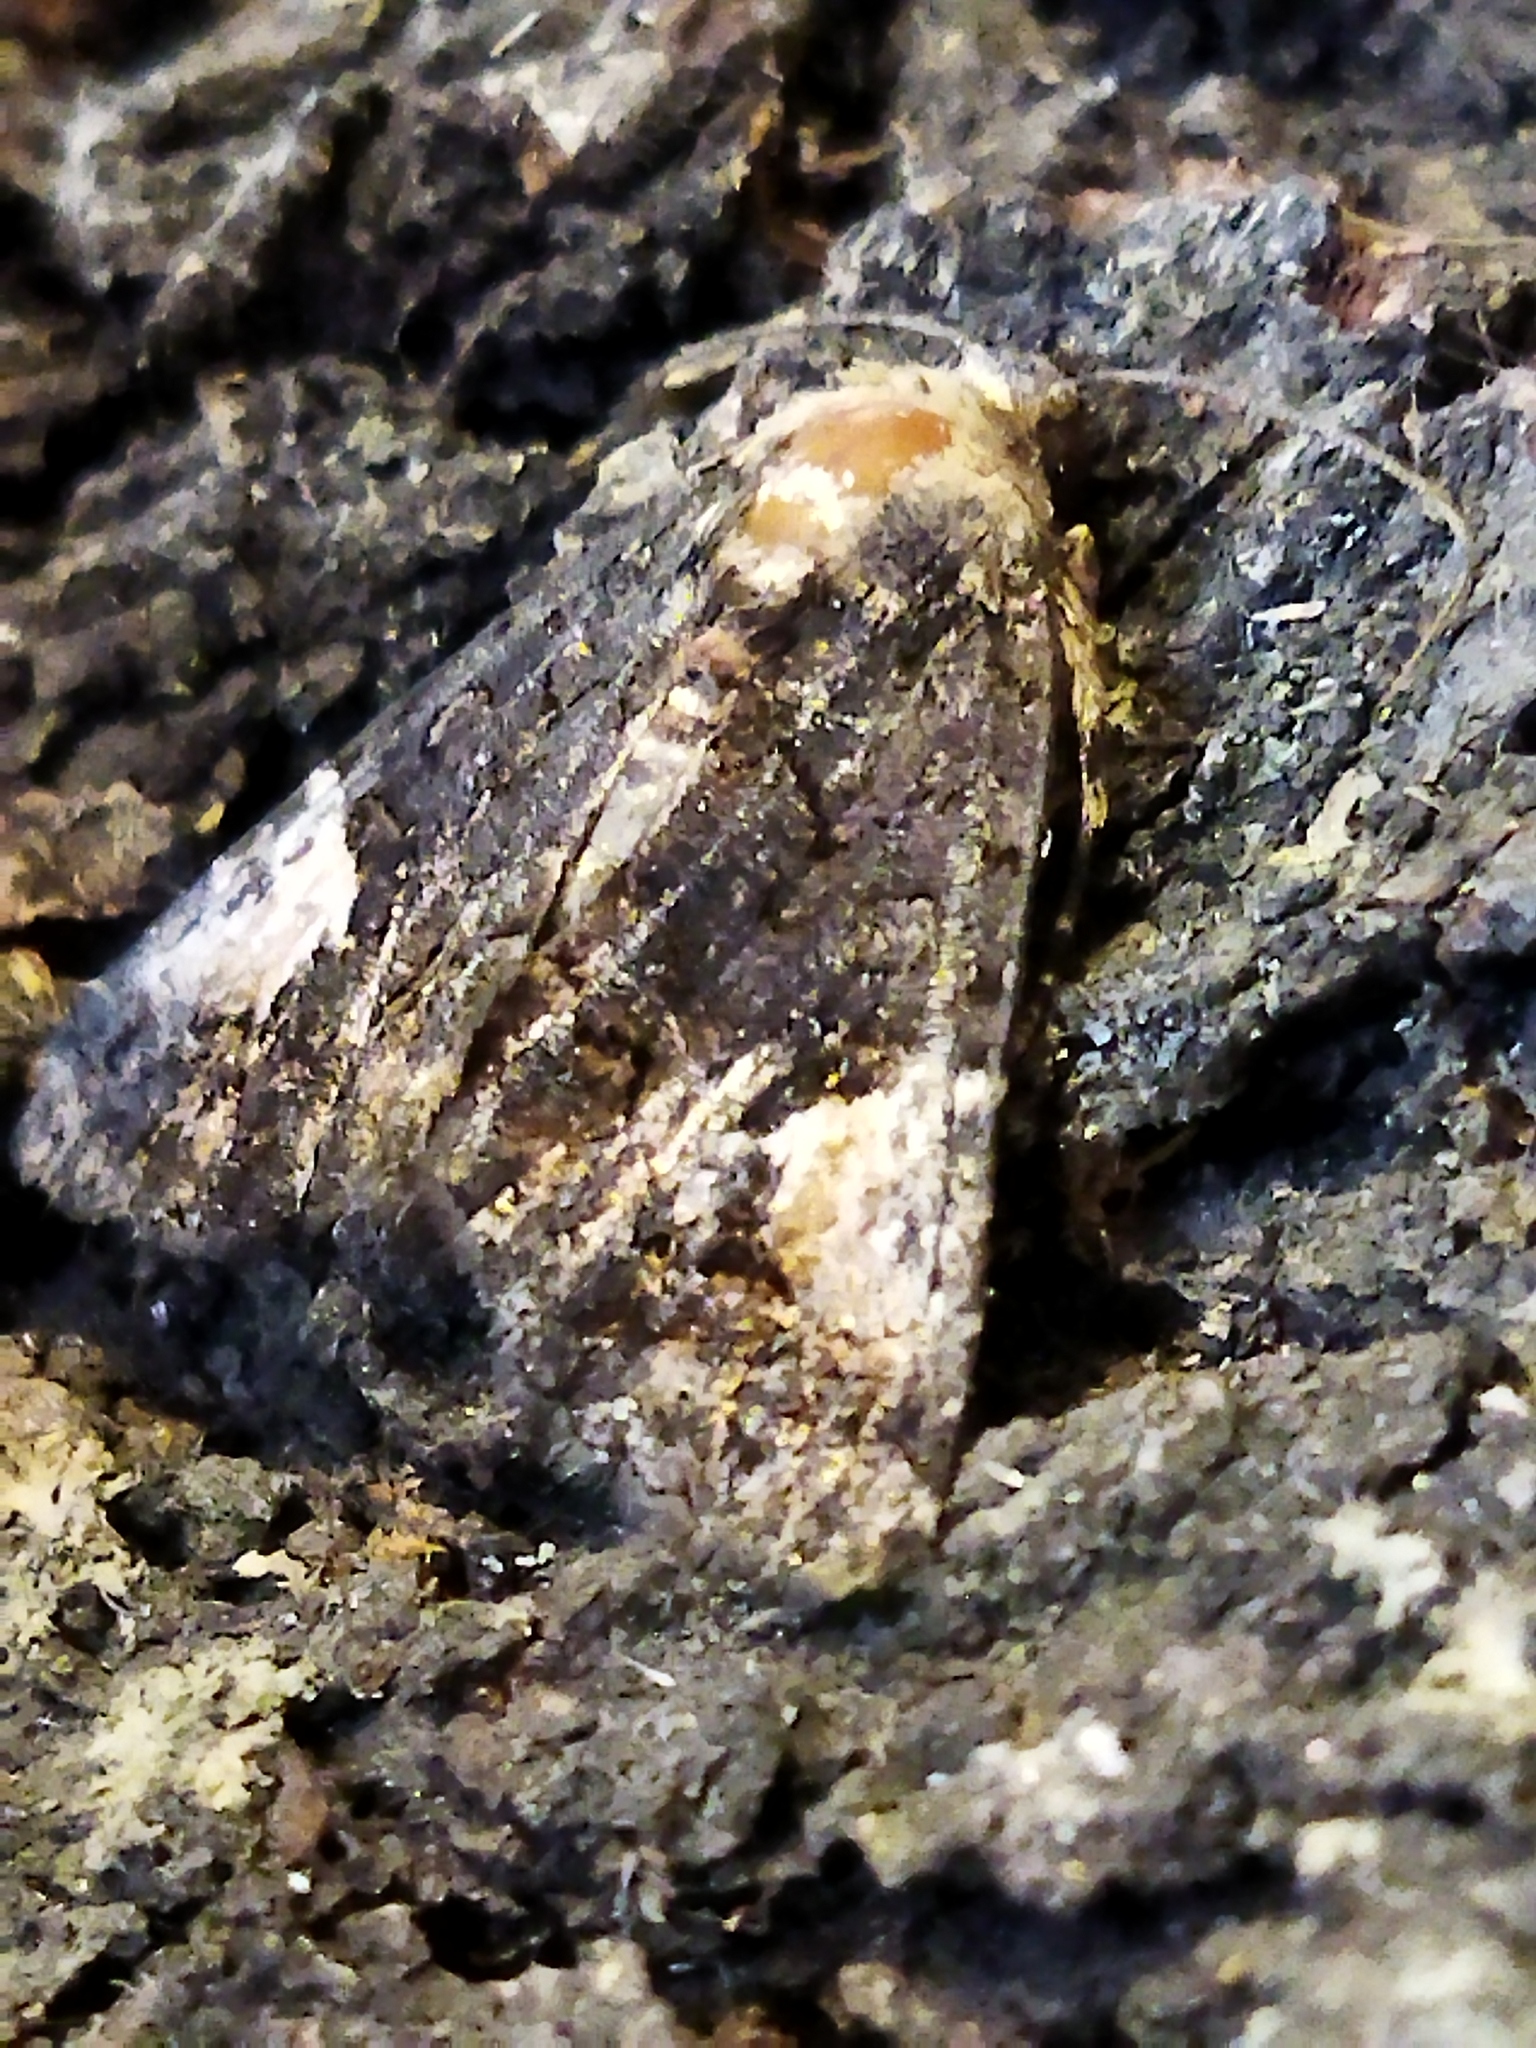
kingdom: Animalia
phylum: Arthropoda
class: Insecta
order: Lepidoptera
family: Noctuidae
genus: Aedia
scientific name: Aedia funesta
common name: The druid
